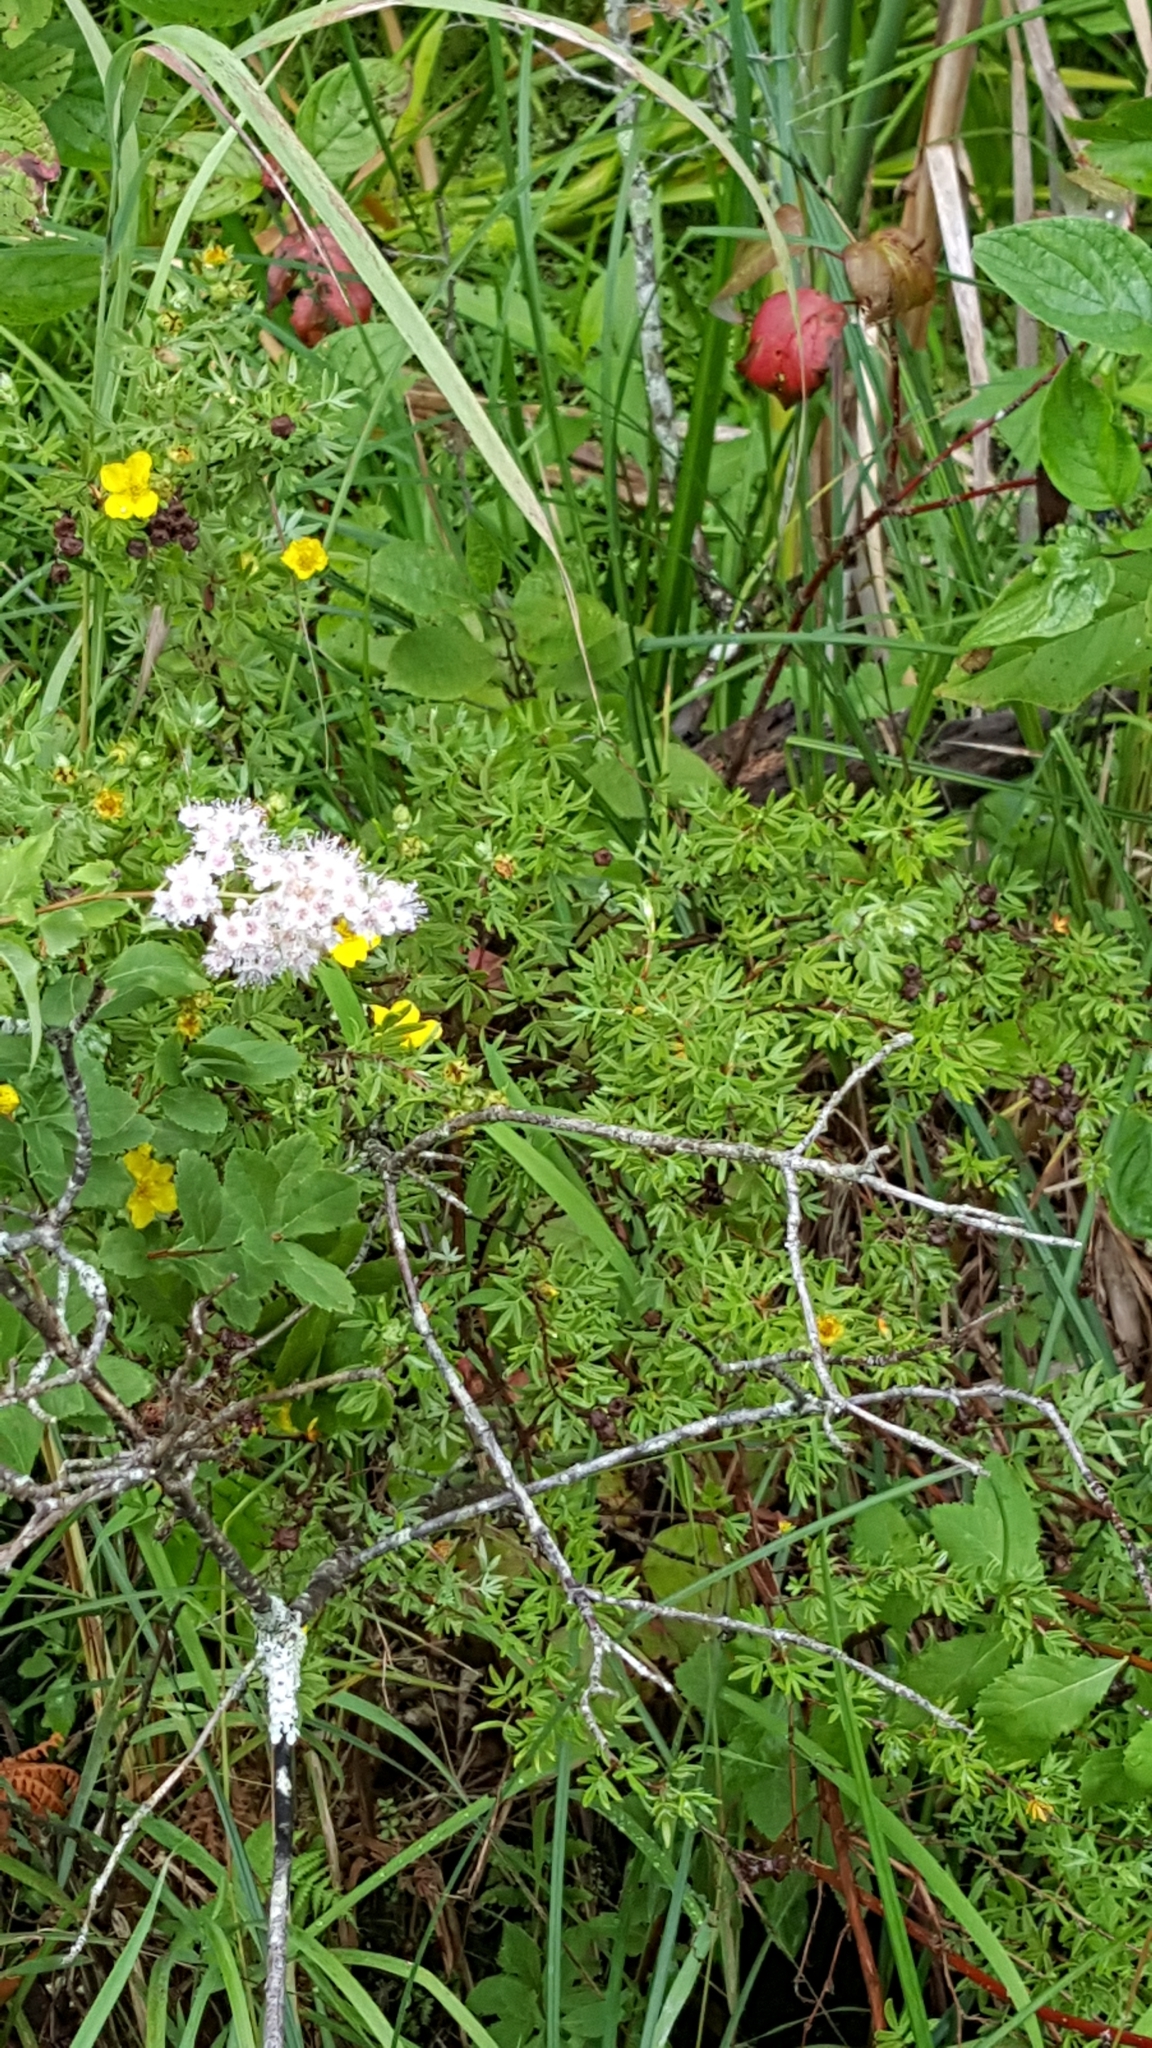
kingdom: Plantae
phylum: Tracheophyta
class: Magnoliopsida
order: Rosales
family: Rosaceae
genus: Dasiphora
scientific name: Dasiphora fruticosa
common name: Shrubby cinquefoil
